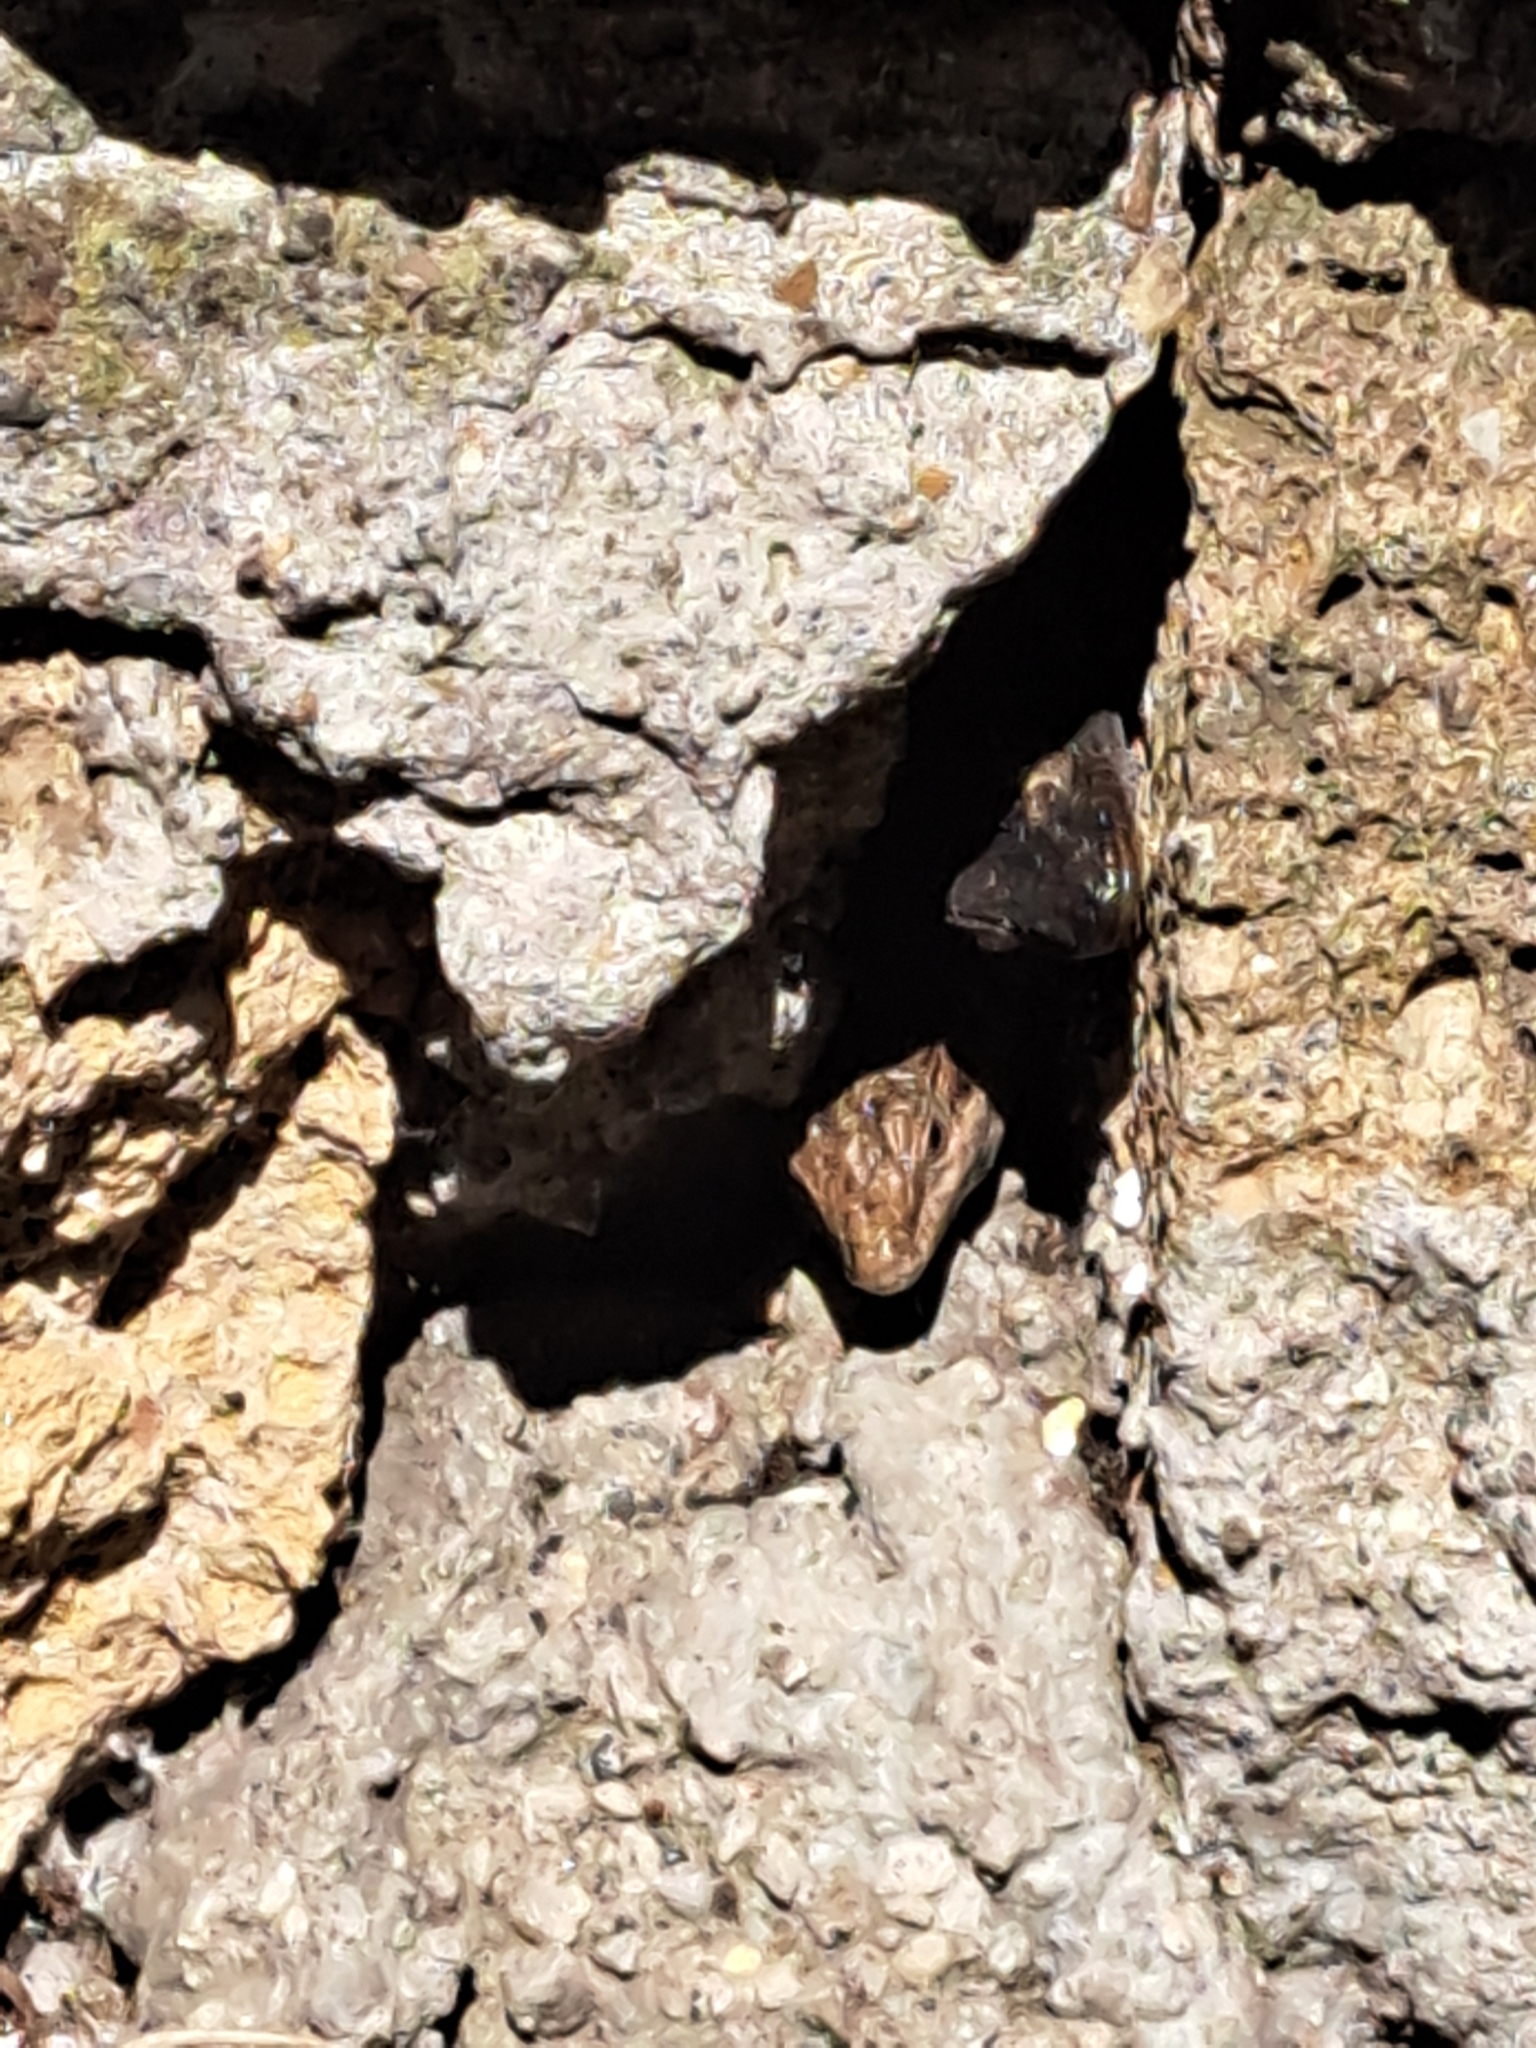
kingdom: Animalia
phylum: Chordata
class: Squamata
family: Lacertidae
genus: Podarcis
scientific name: Podarcis siculus
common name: Italian wall lizard
